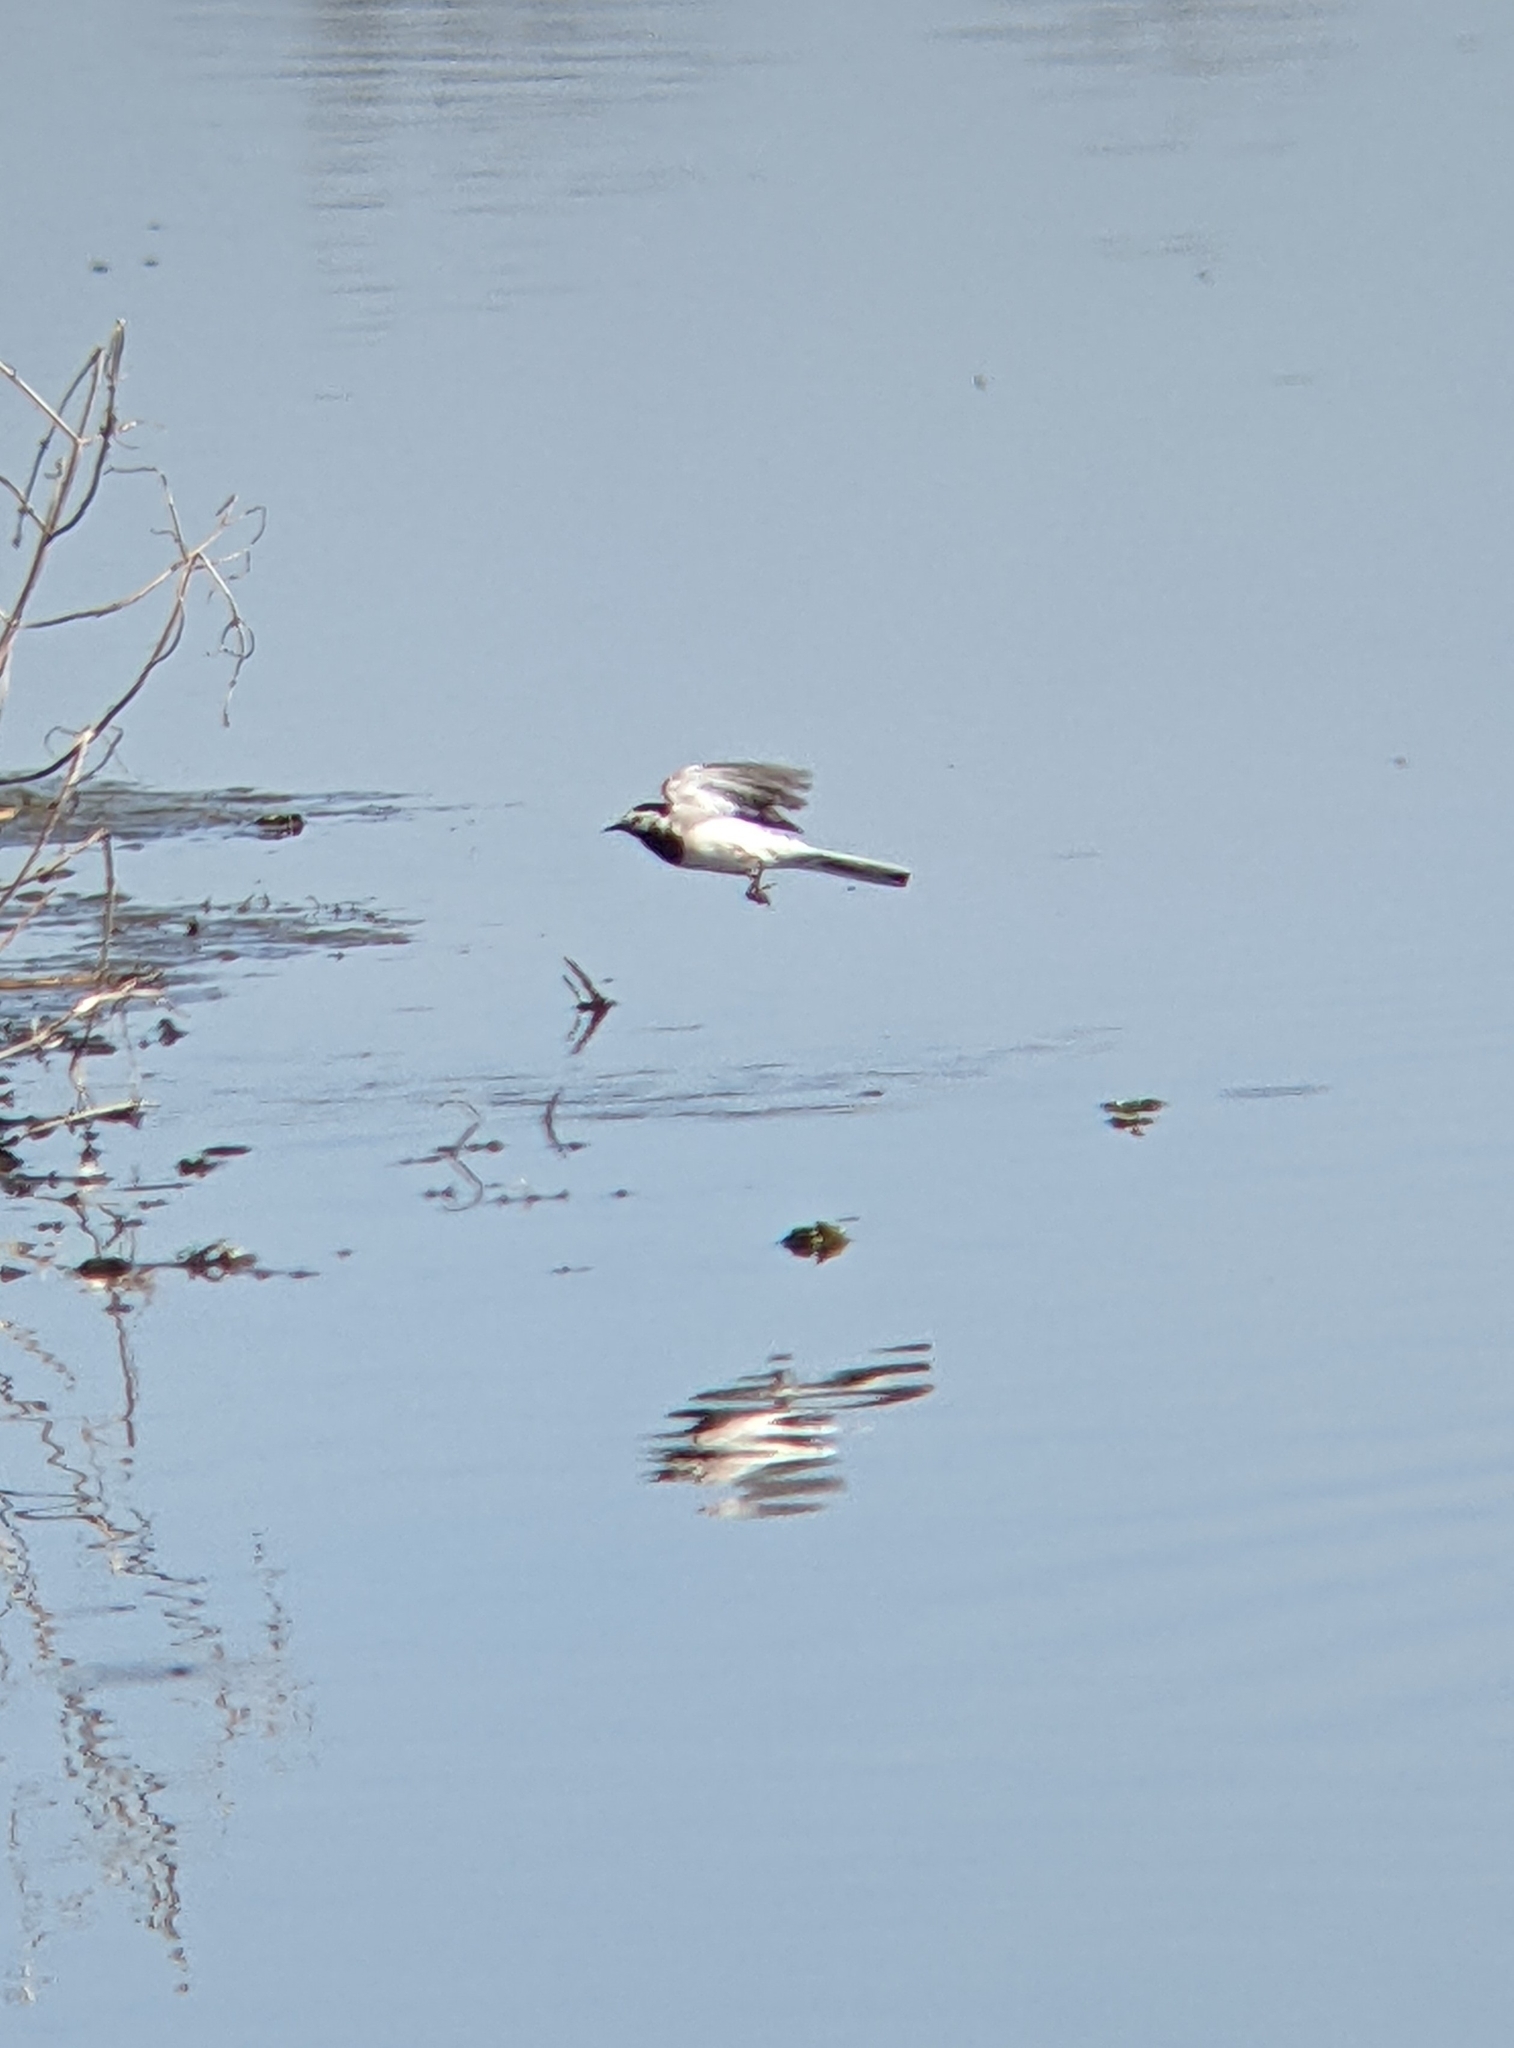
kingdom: Animalia
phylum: Chordata
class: Aves
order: Passeriformes
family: Motacillidae
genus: Motacilla
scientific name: Motacilla alba
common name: White wagtail
